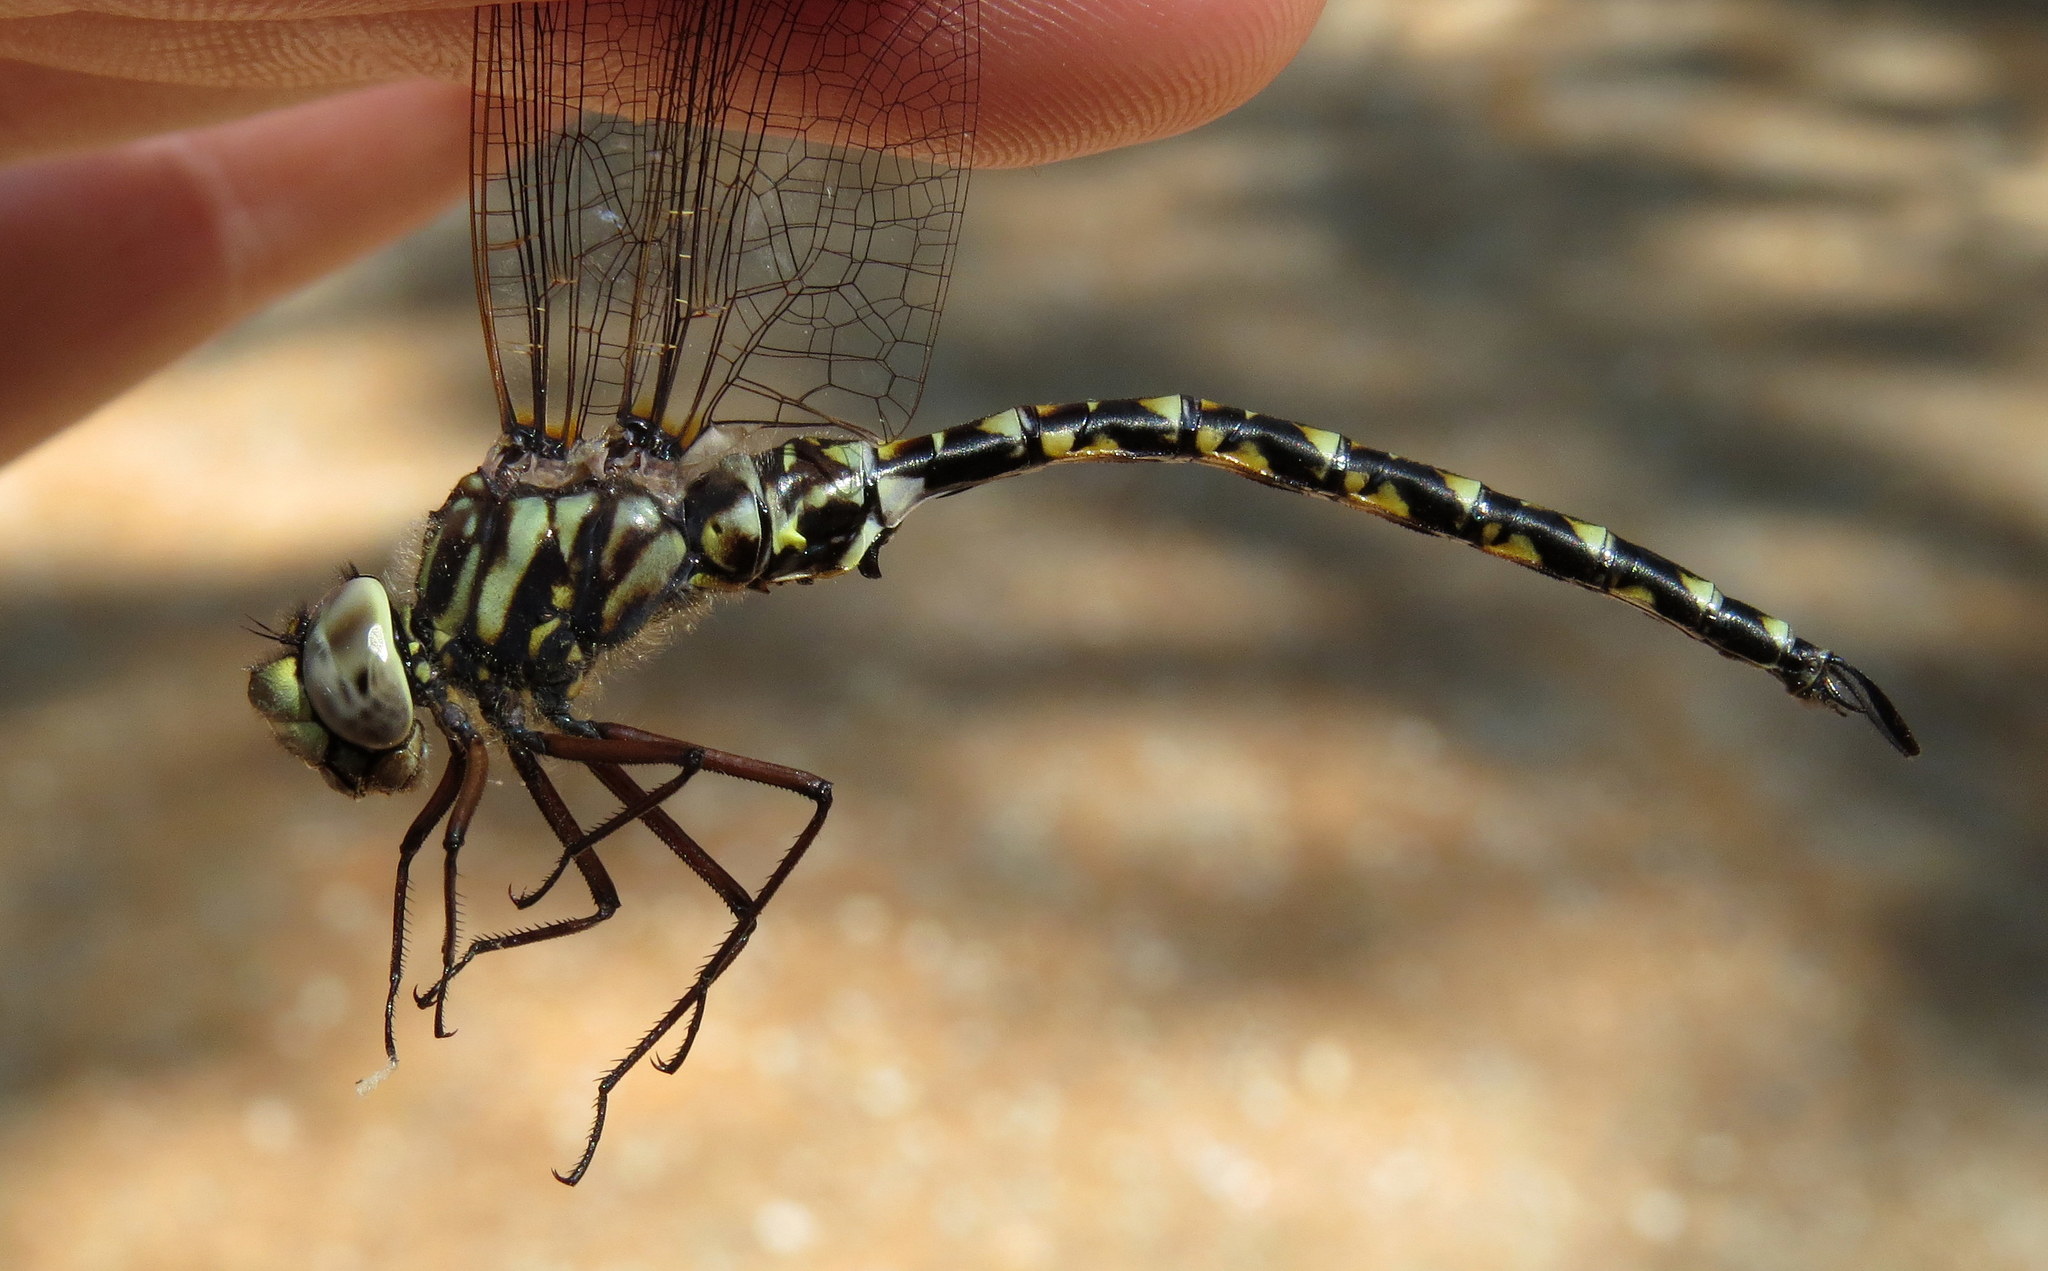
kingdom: Animalia
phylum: Arthropoda
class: Insecta
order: Odonata
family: Aeshnidae
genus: Gomphaeschna
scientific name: Gomphaeschna furcillata
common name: Harlequin darner
